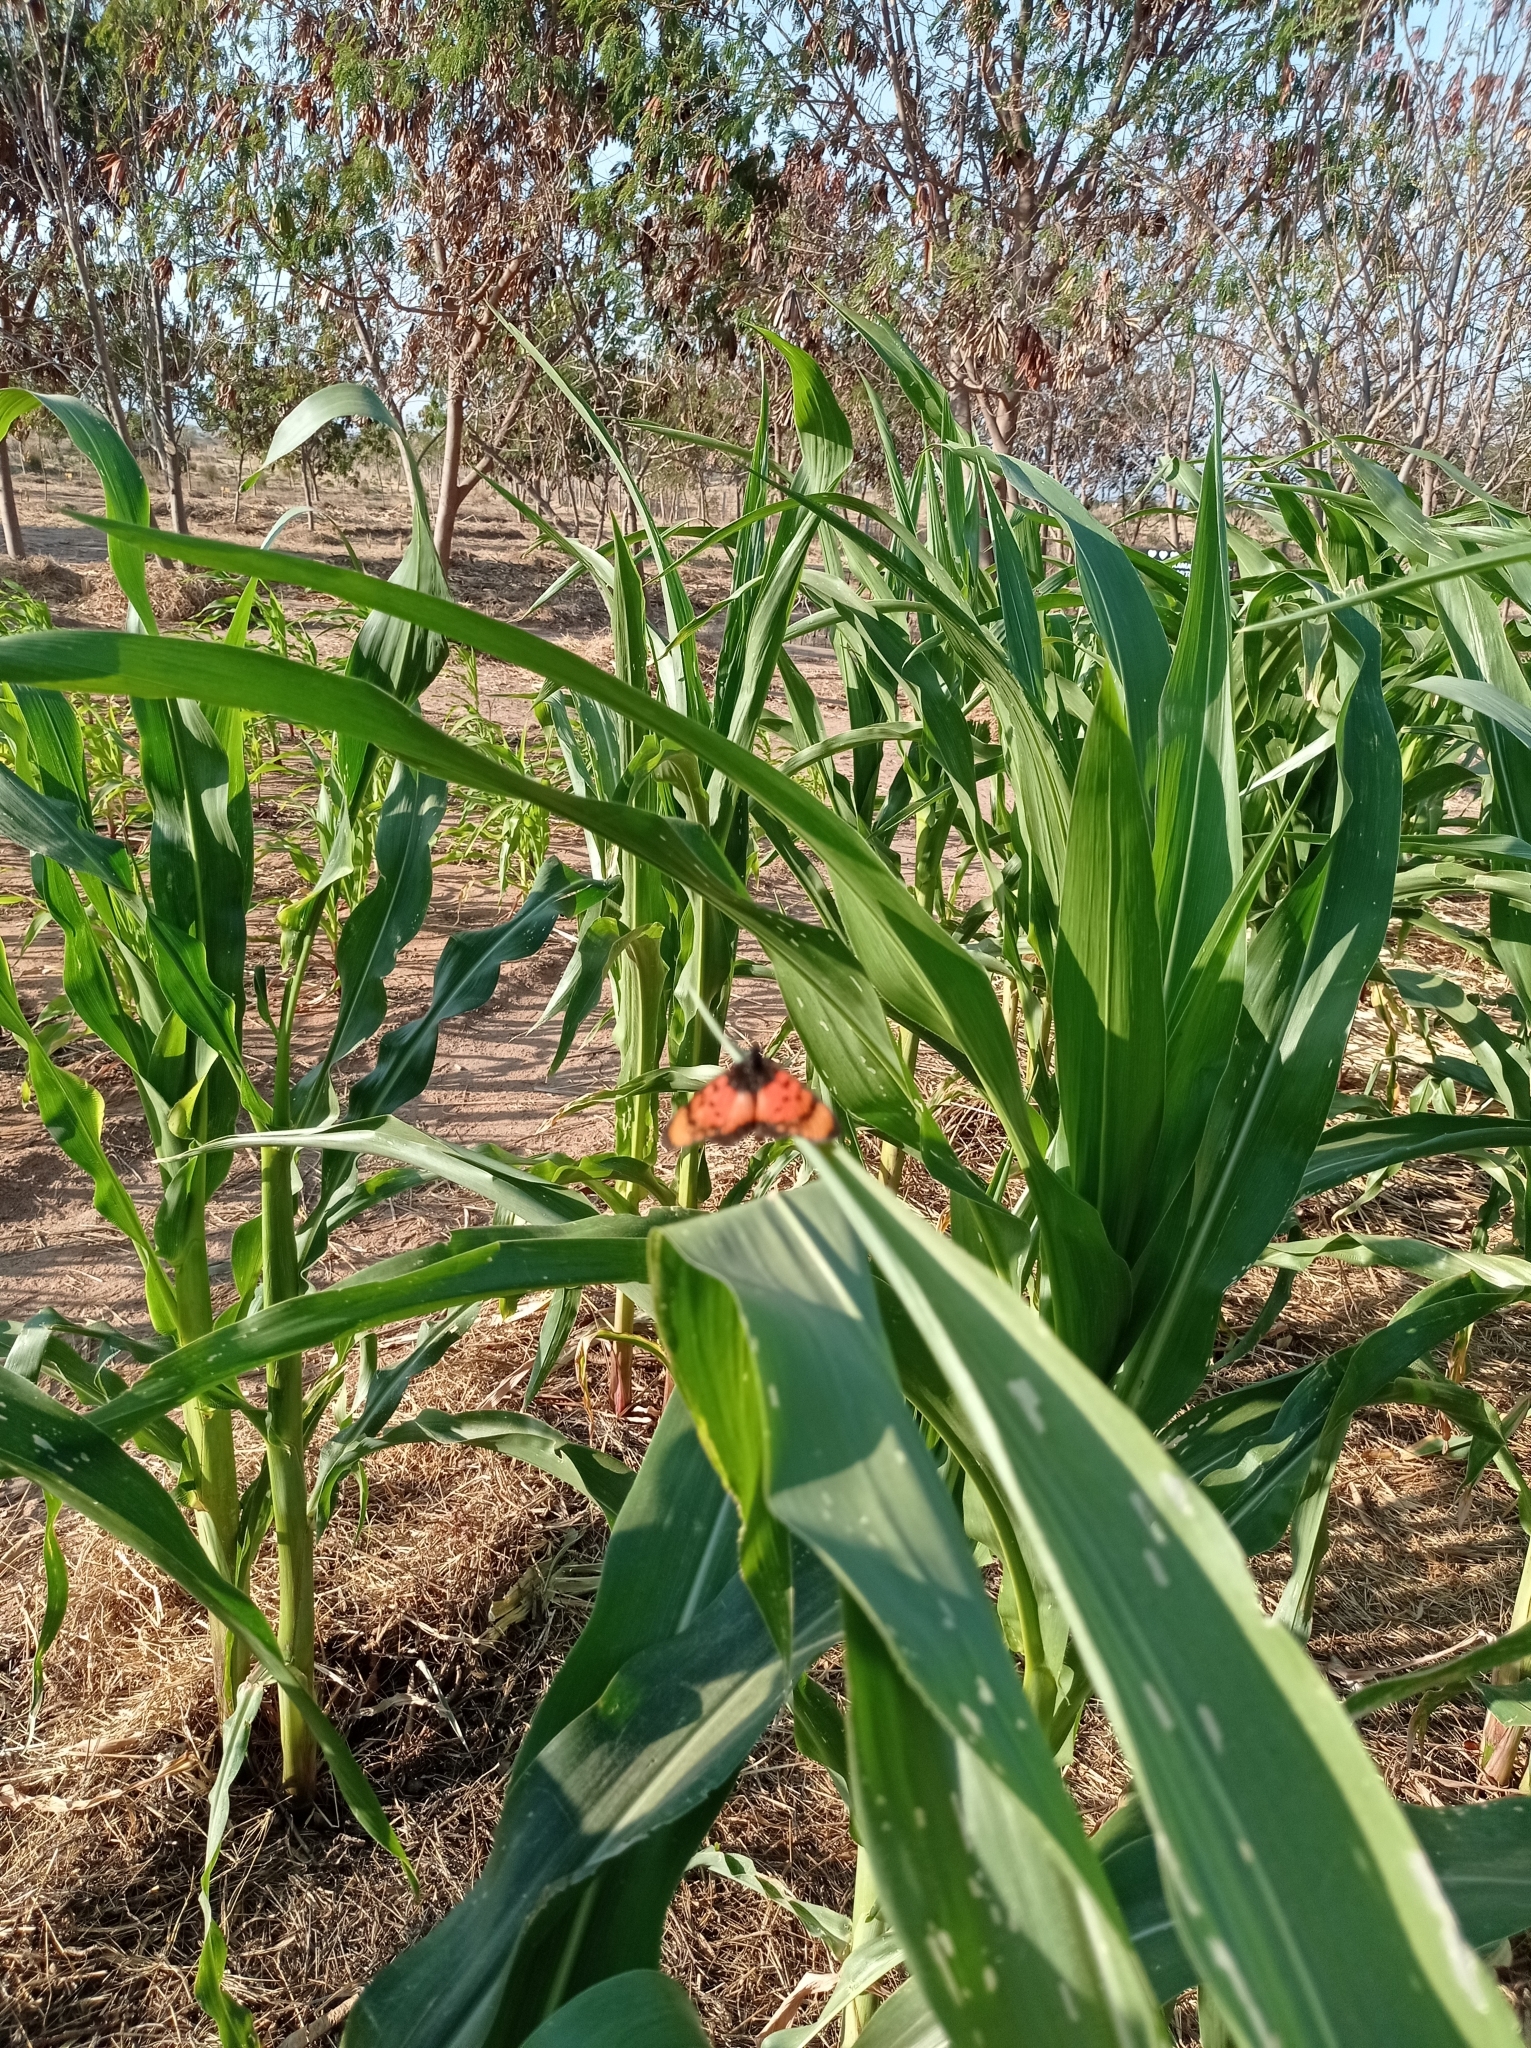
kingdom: Animalia
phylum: Arthropoda
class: Insecta
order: Lepidoptera
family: Nymphalidae
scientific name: Nymphalidae
